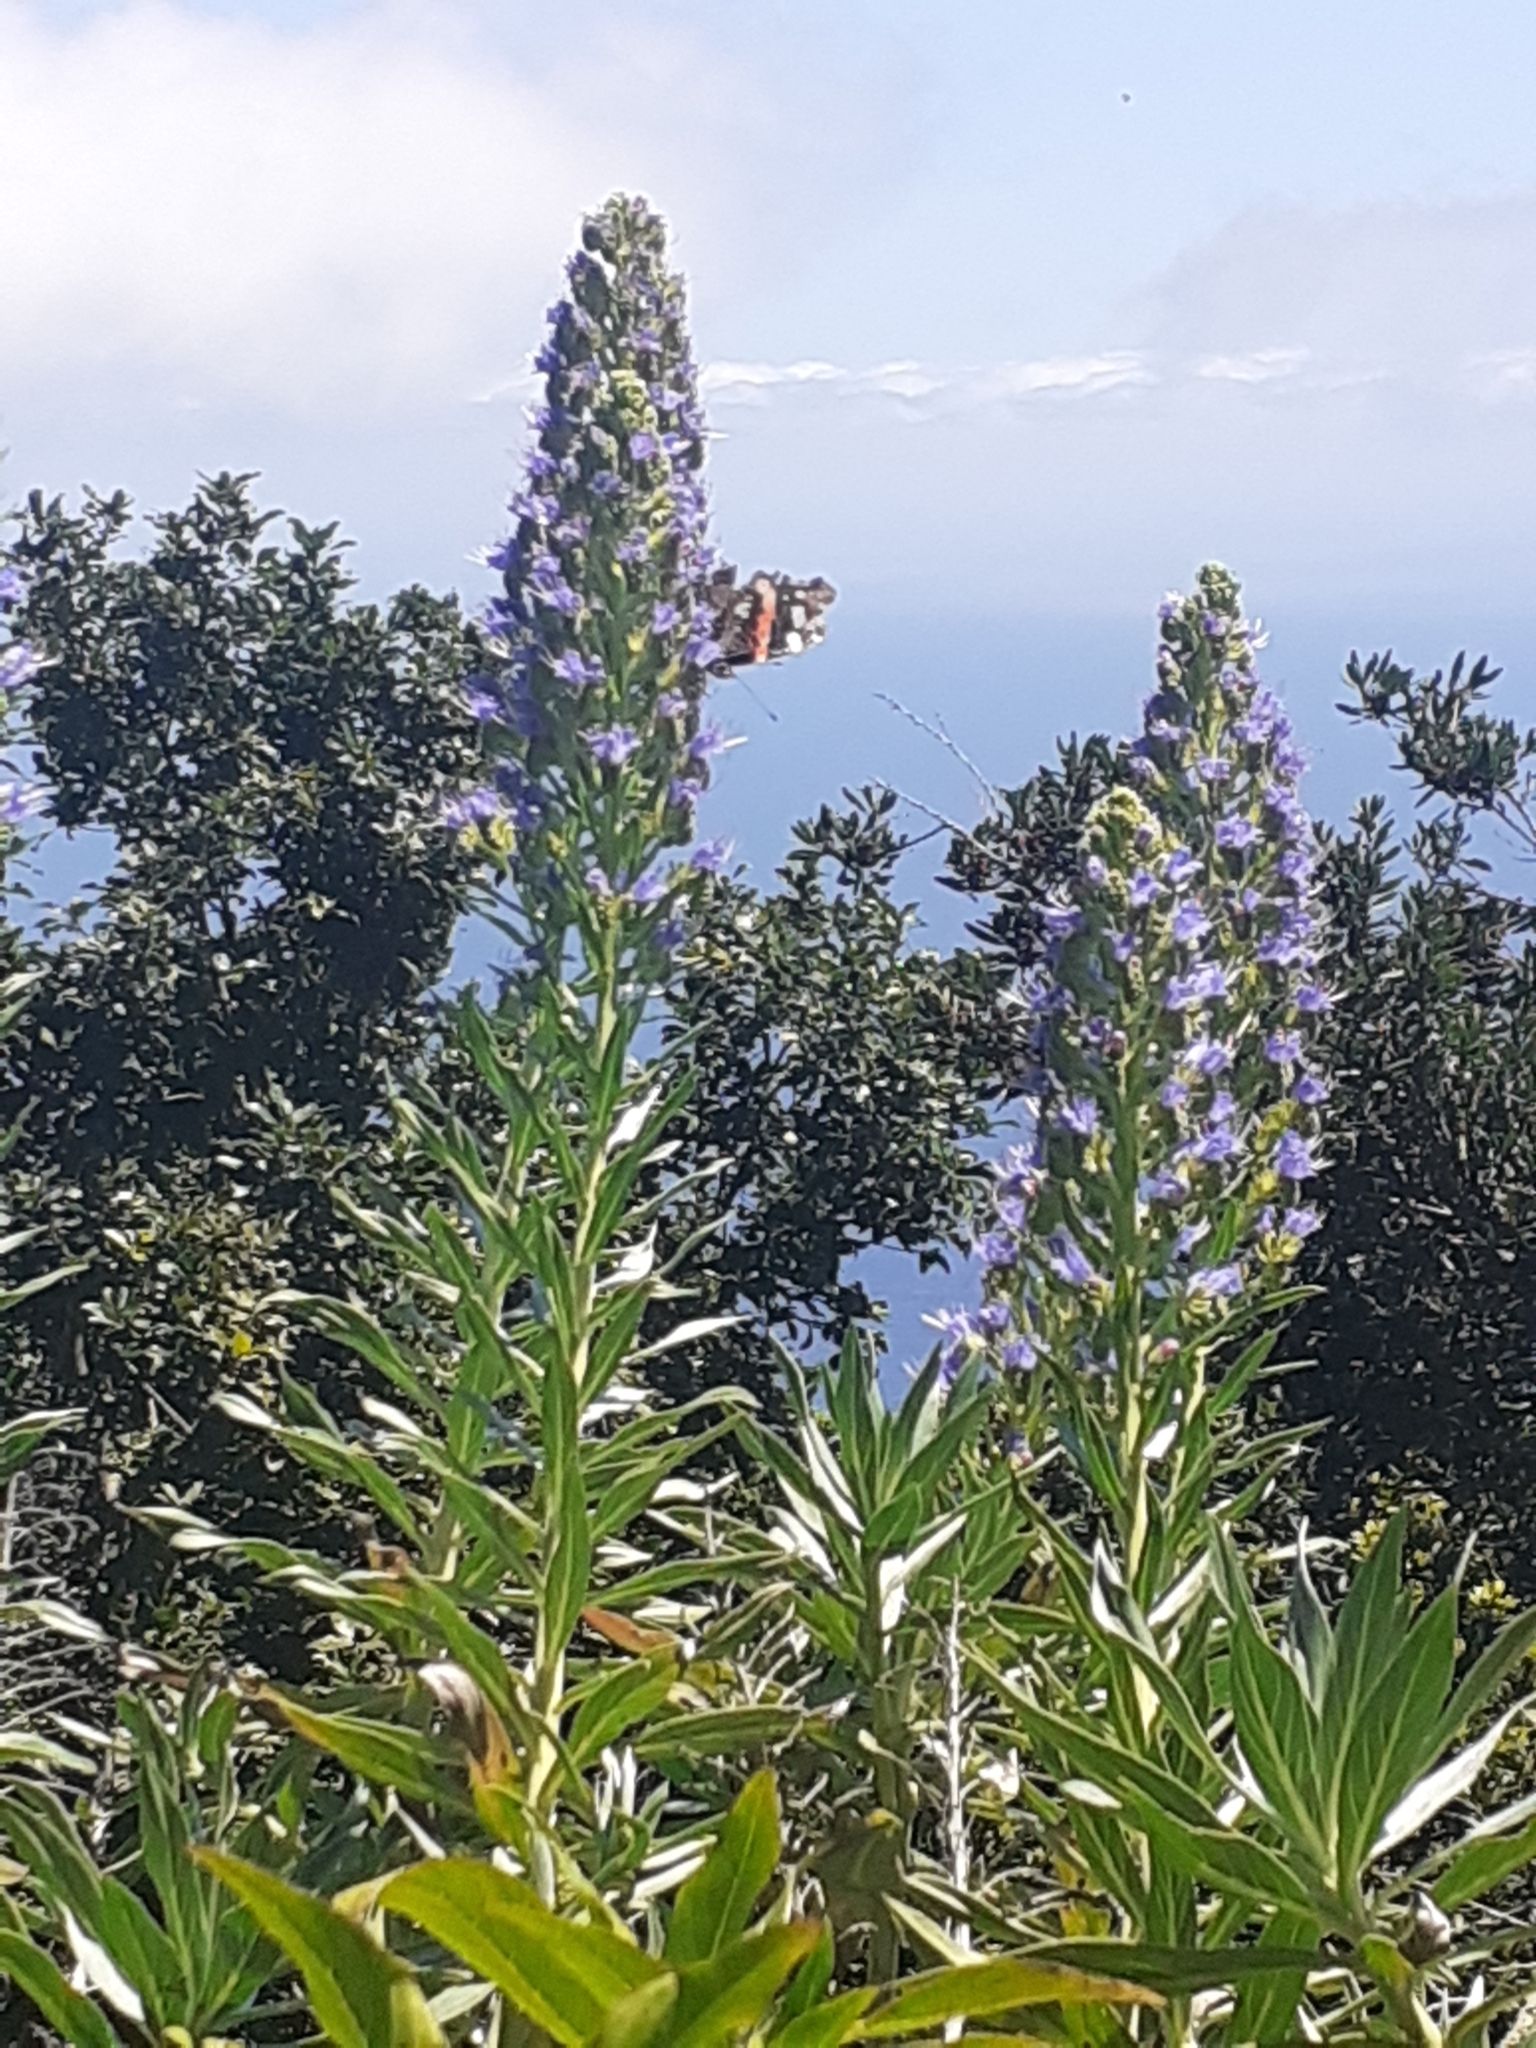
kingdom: Animalia
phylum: Arthropoda
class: Insecta
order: Lepidoptera
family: Nymphalidae
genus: Vanessa
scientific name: Vanessa atalanta
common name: Red admiral
